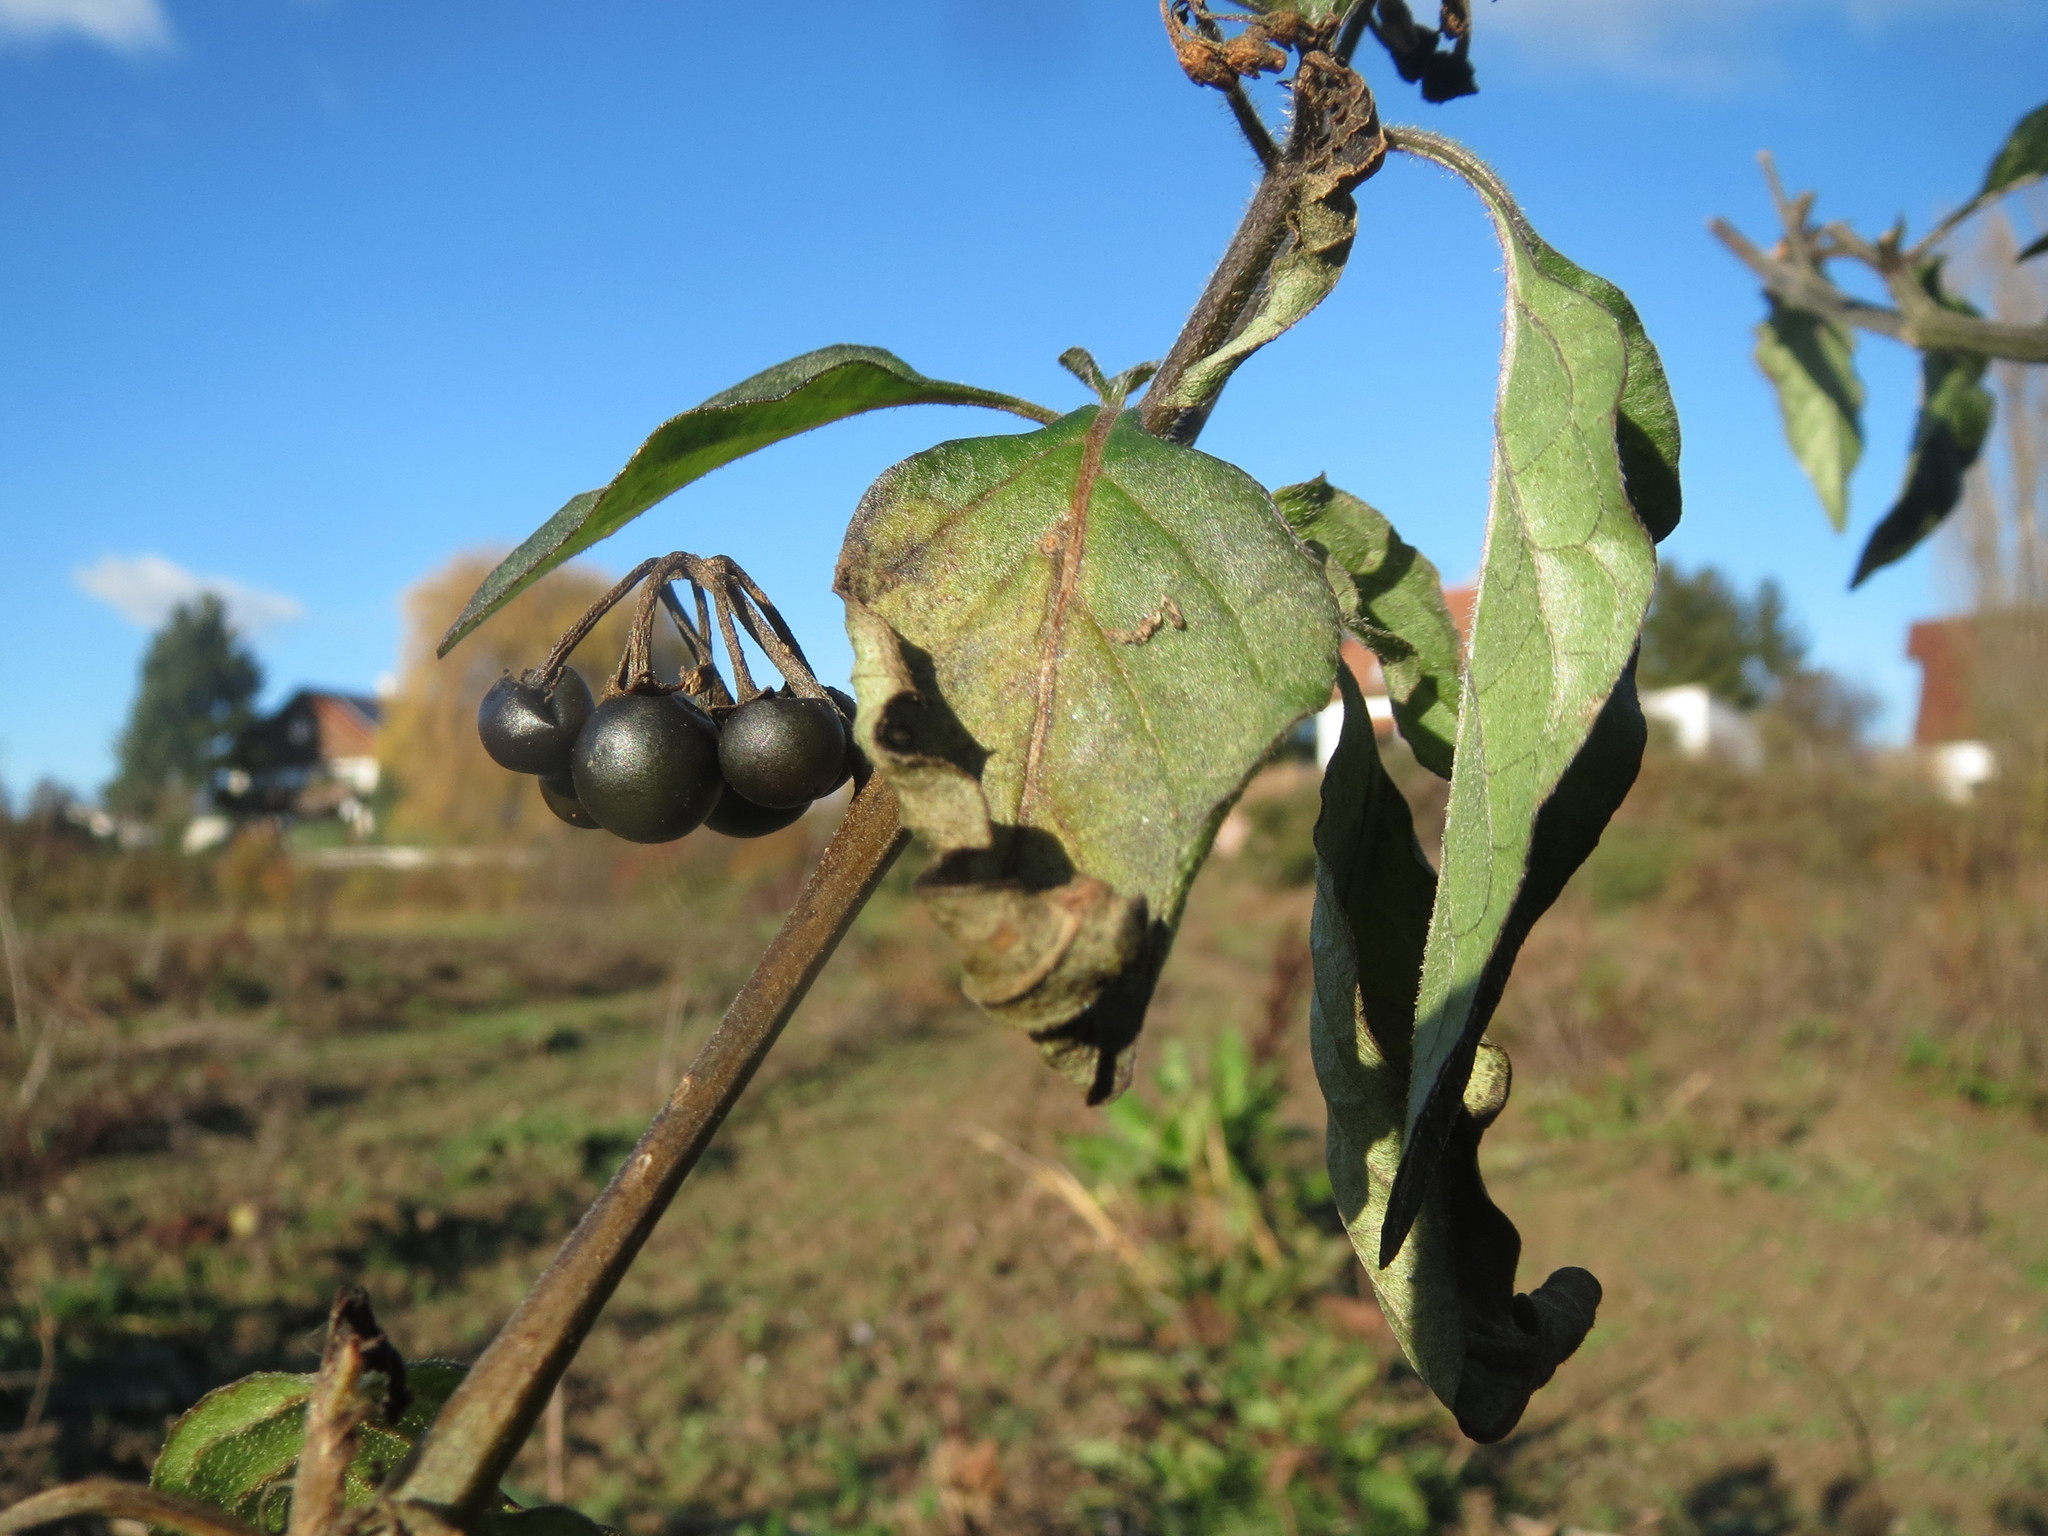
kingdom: Plantae
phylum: Tracheophyta
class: Magnoliopsida
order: Solanales
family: Solanaceae
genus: Solanum
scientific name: Solanum nigrum
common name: Black nightshade
